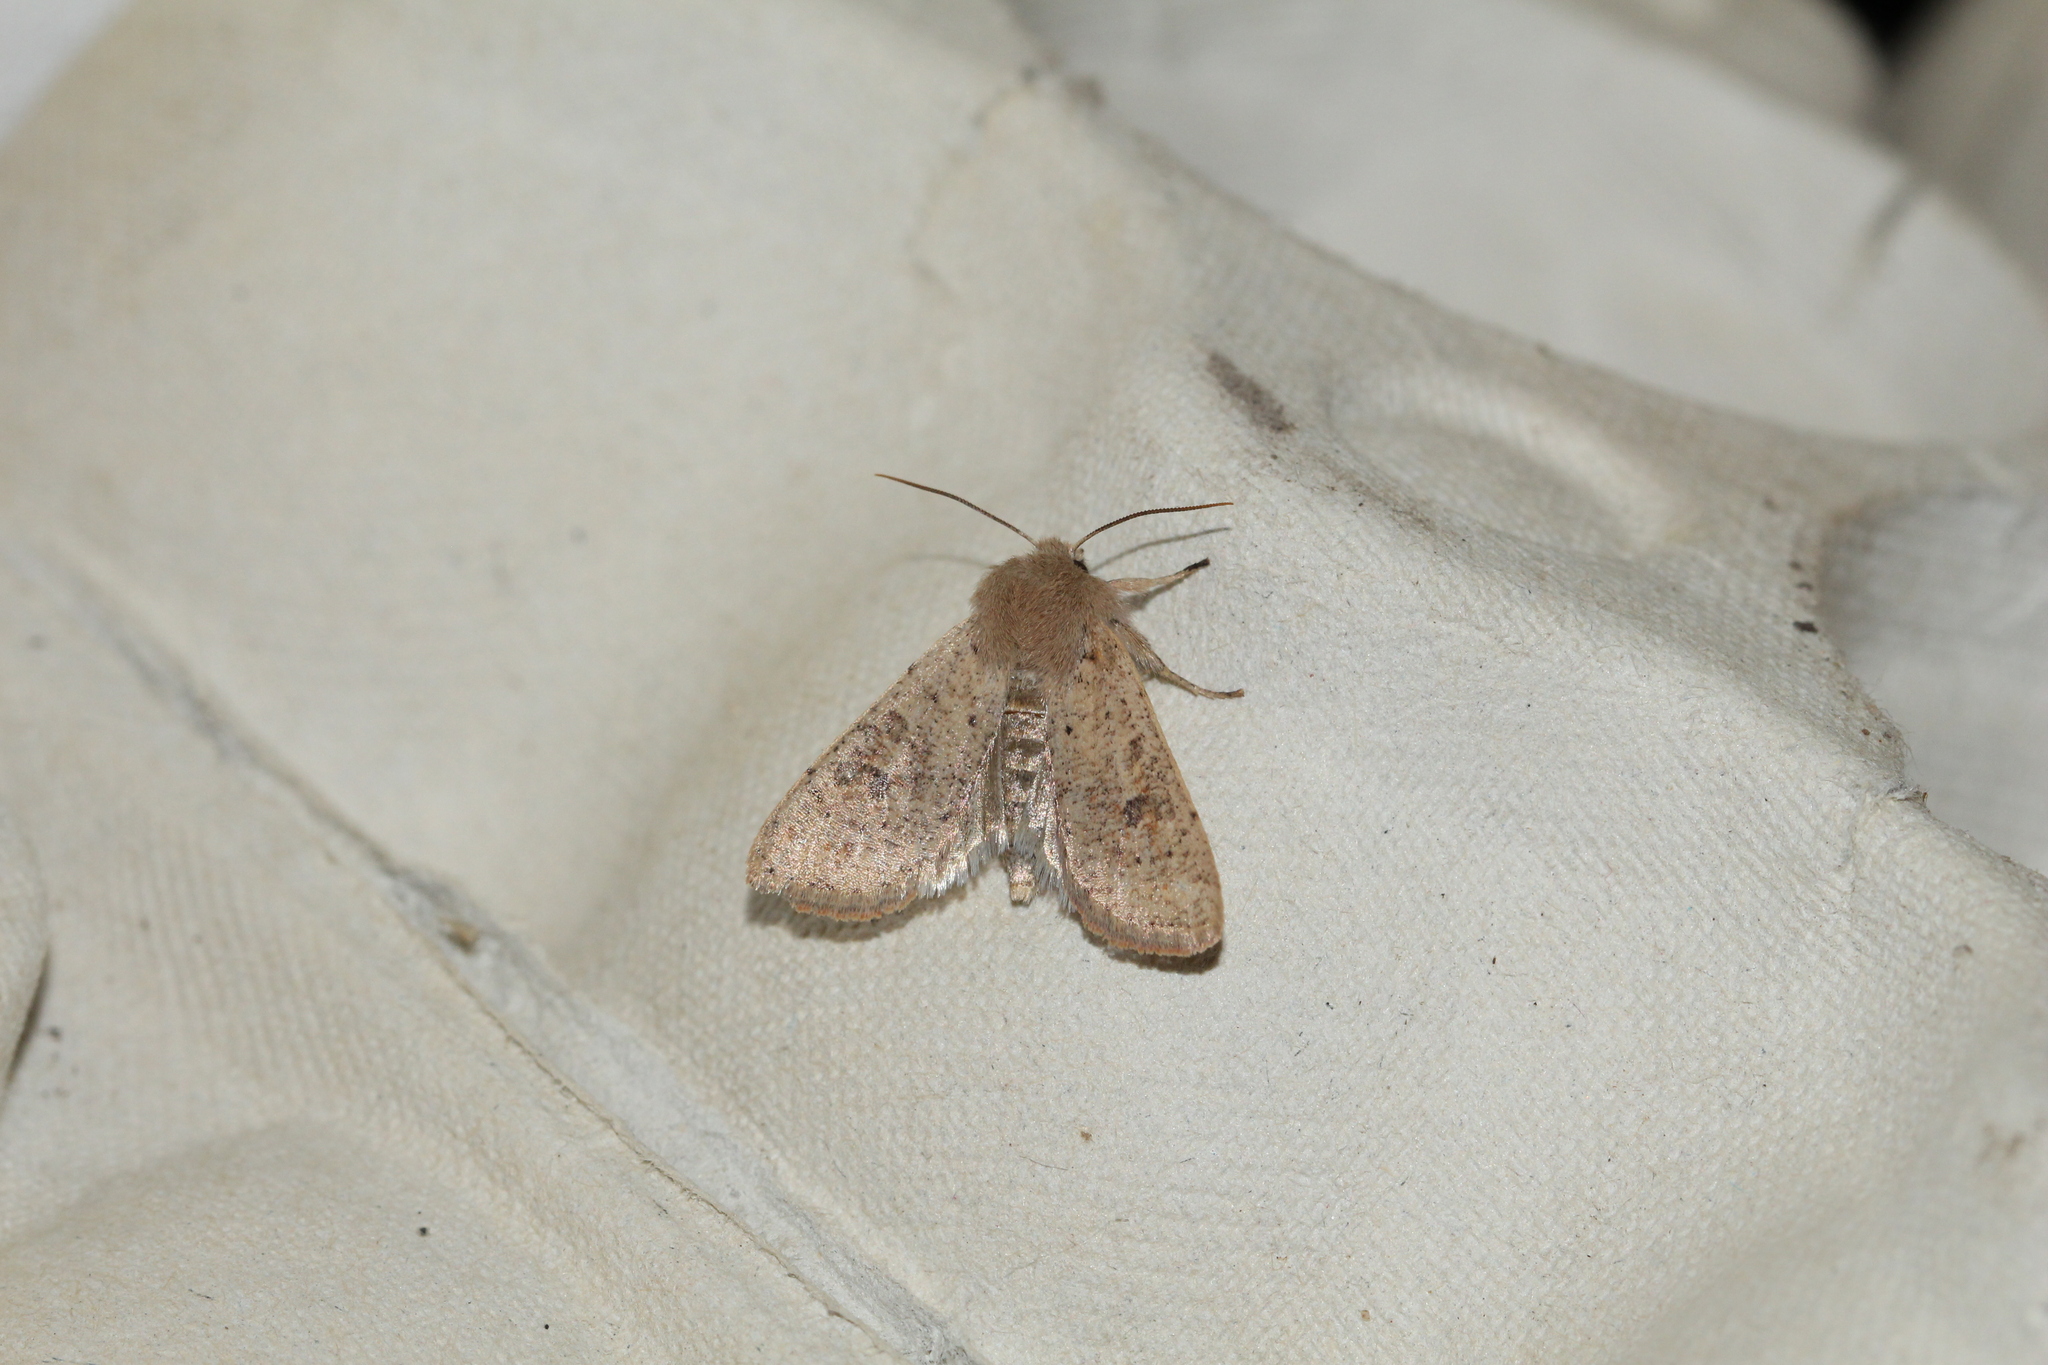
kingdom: Animalia
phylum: Arthropoda
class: Insecta
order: Lepidoptera
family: Noctuidae
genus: Orthosia
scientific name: Orthosia cruda
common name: Small quaker
